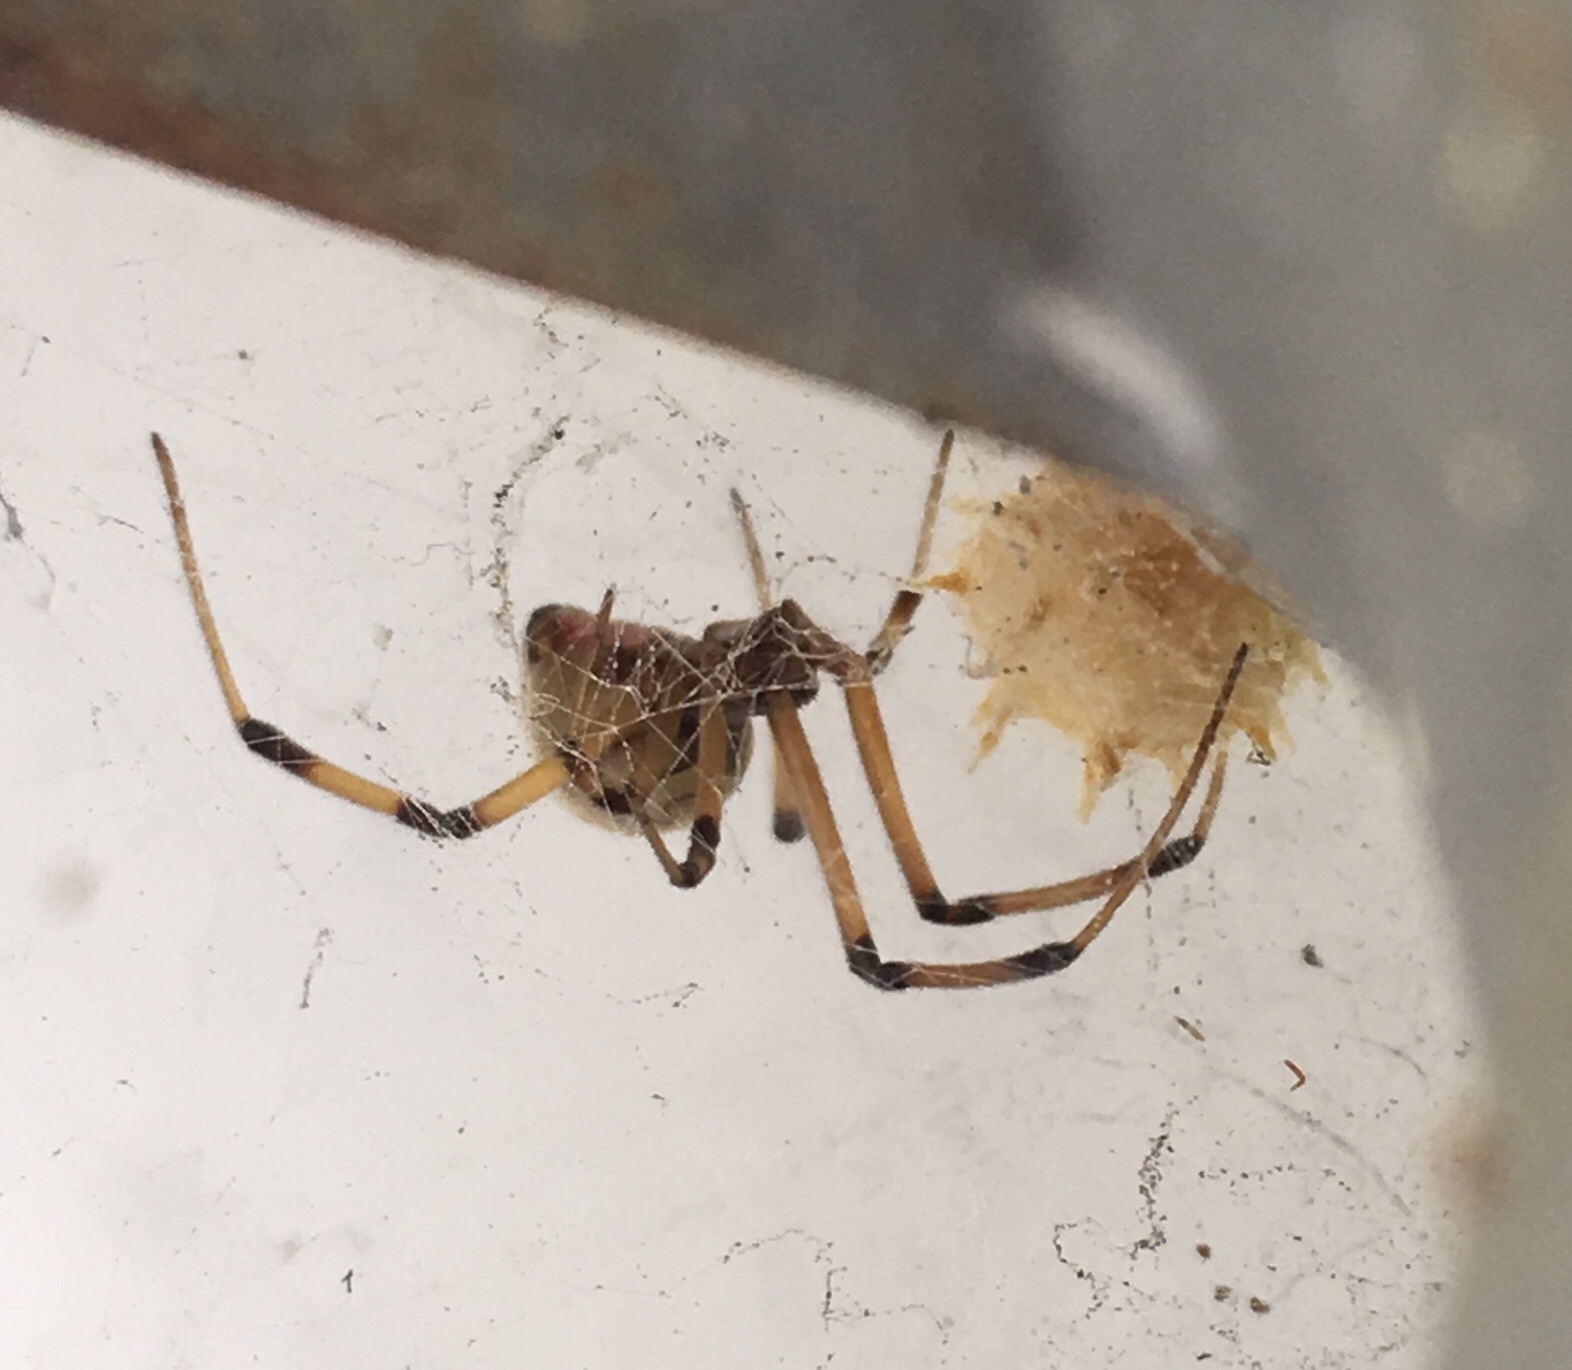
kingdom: Animalia
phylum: Arthropoda
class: Arachnida
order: Araneae
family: Theridiidae
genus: Latrodectus
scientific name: Latrodectus geometricus
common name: Brown widow spider
